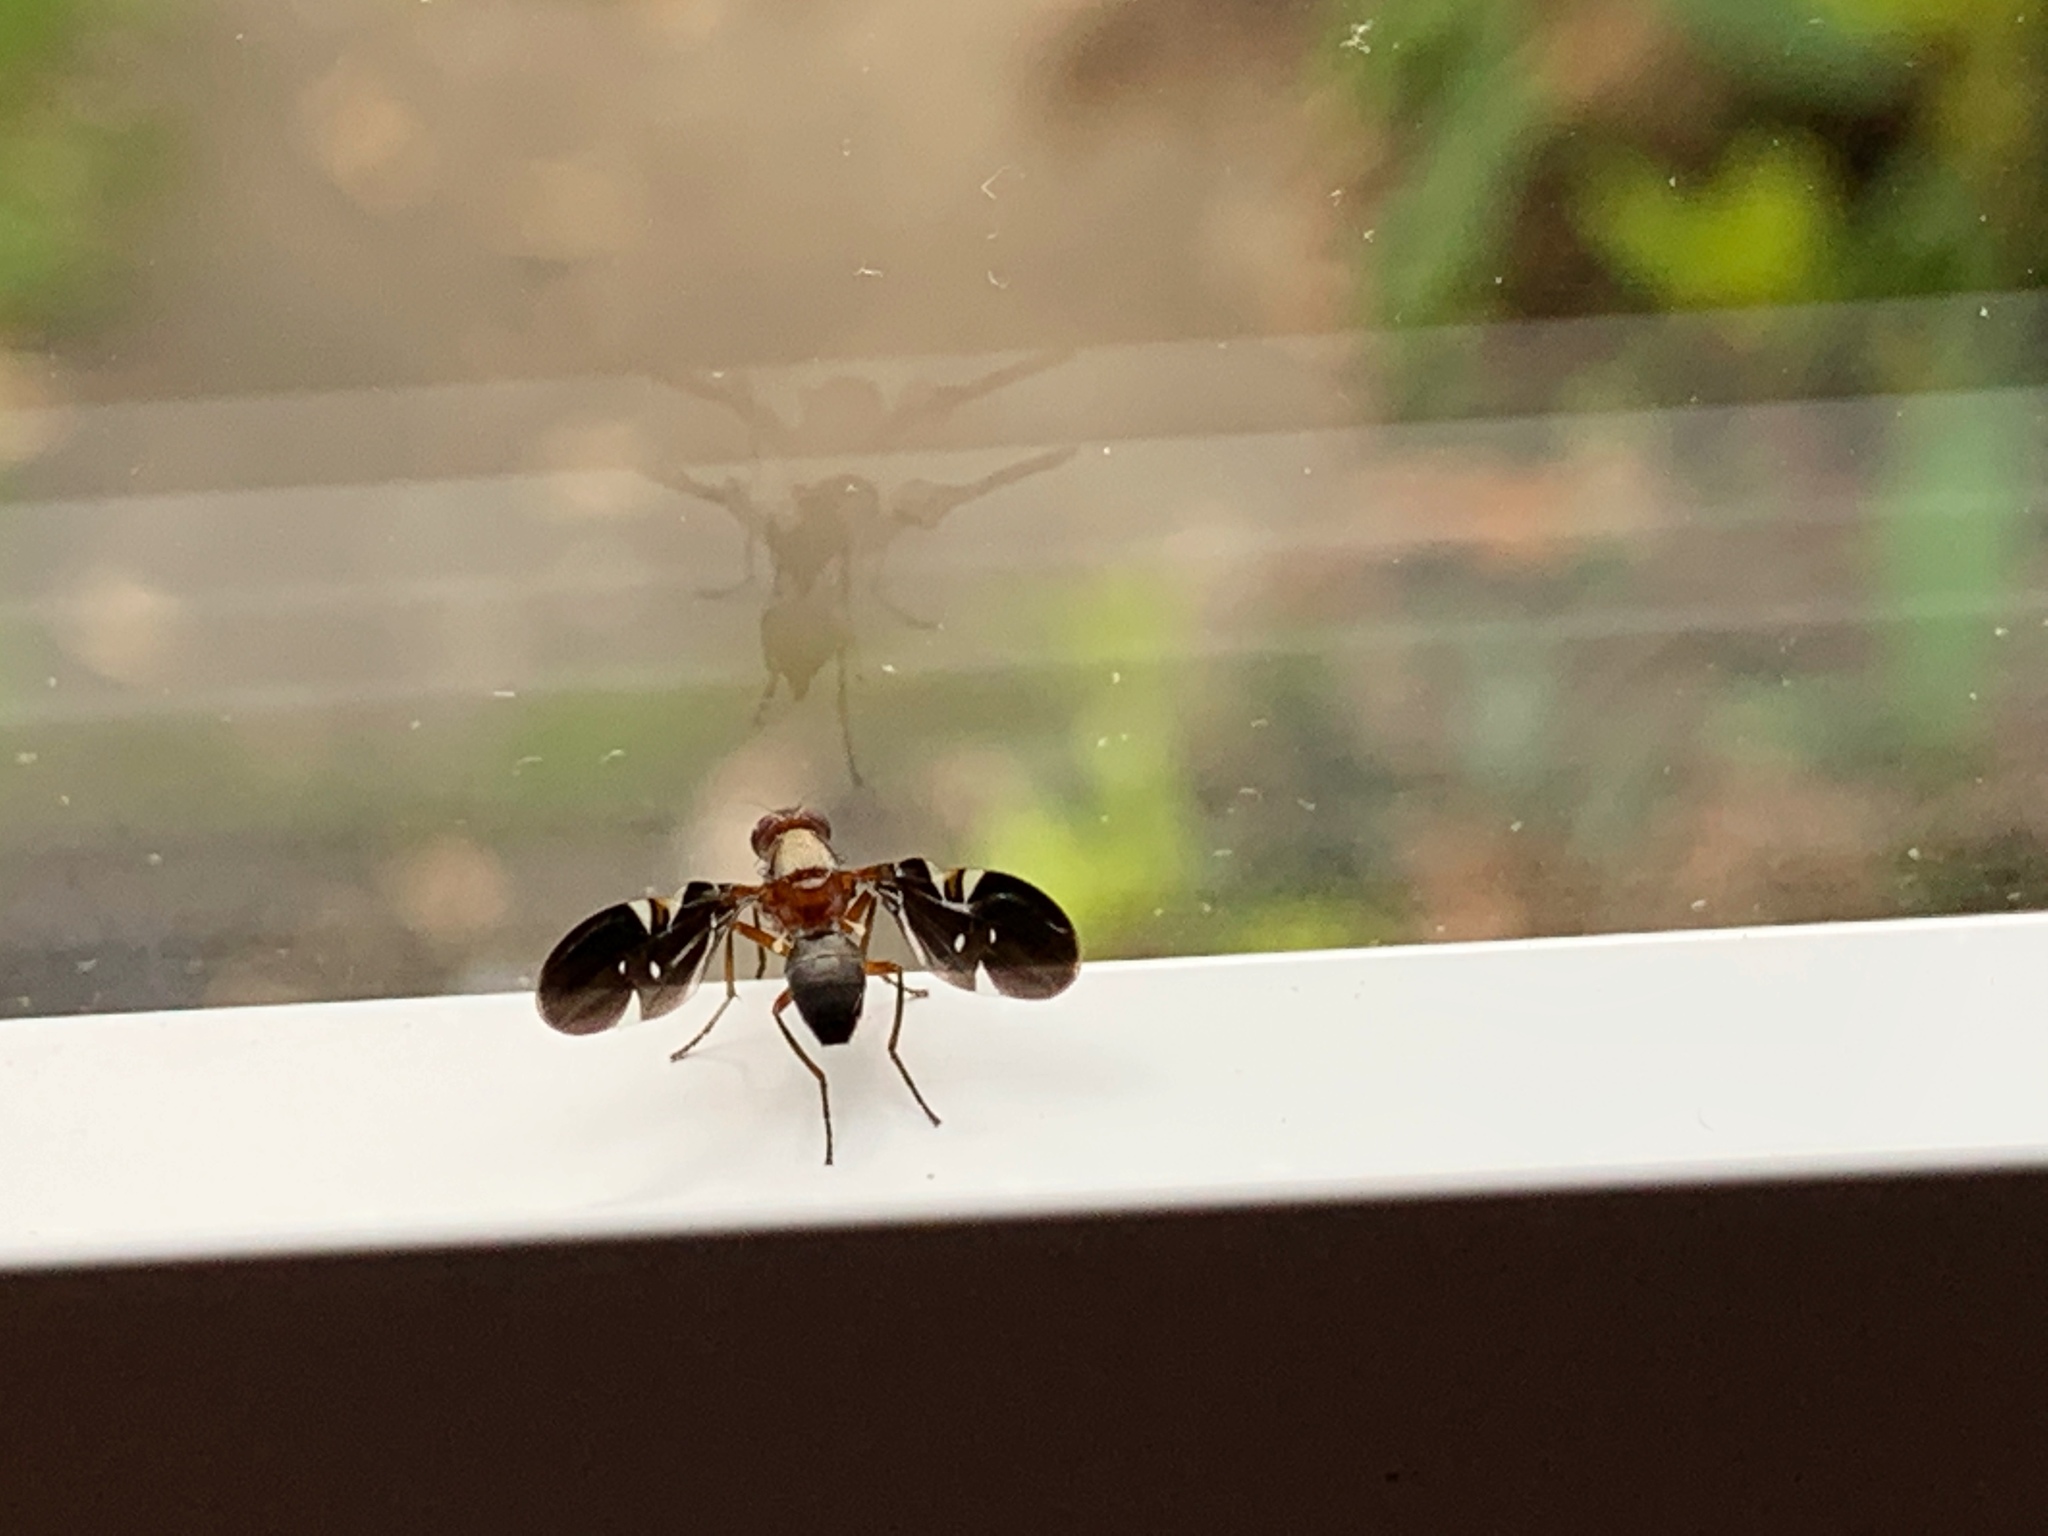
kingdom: Animalia
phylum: Arthropoda
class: Insecta
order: Diptera
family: Ulidiidae
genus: Delphinia
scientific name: Delphinia picta
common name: Common picture-winged fly
